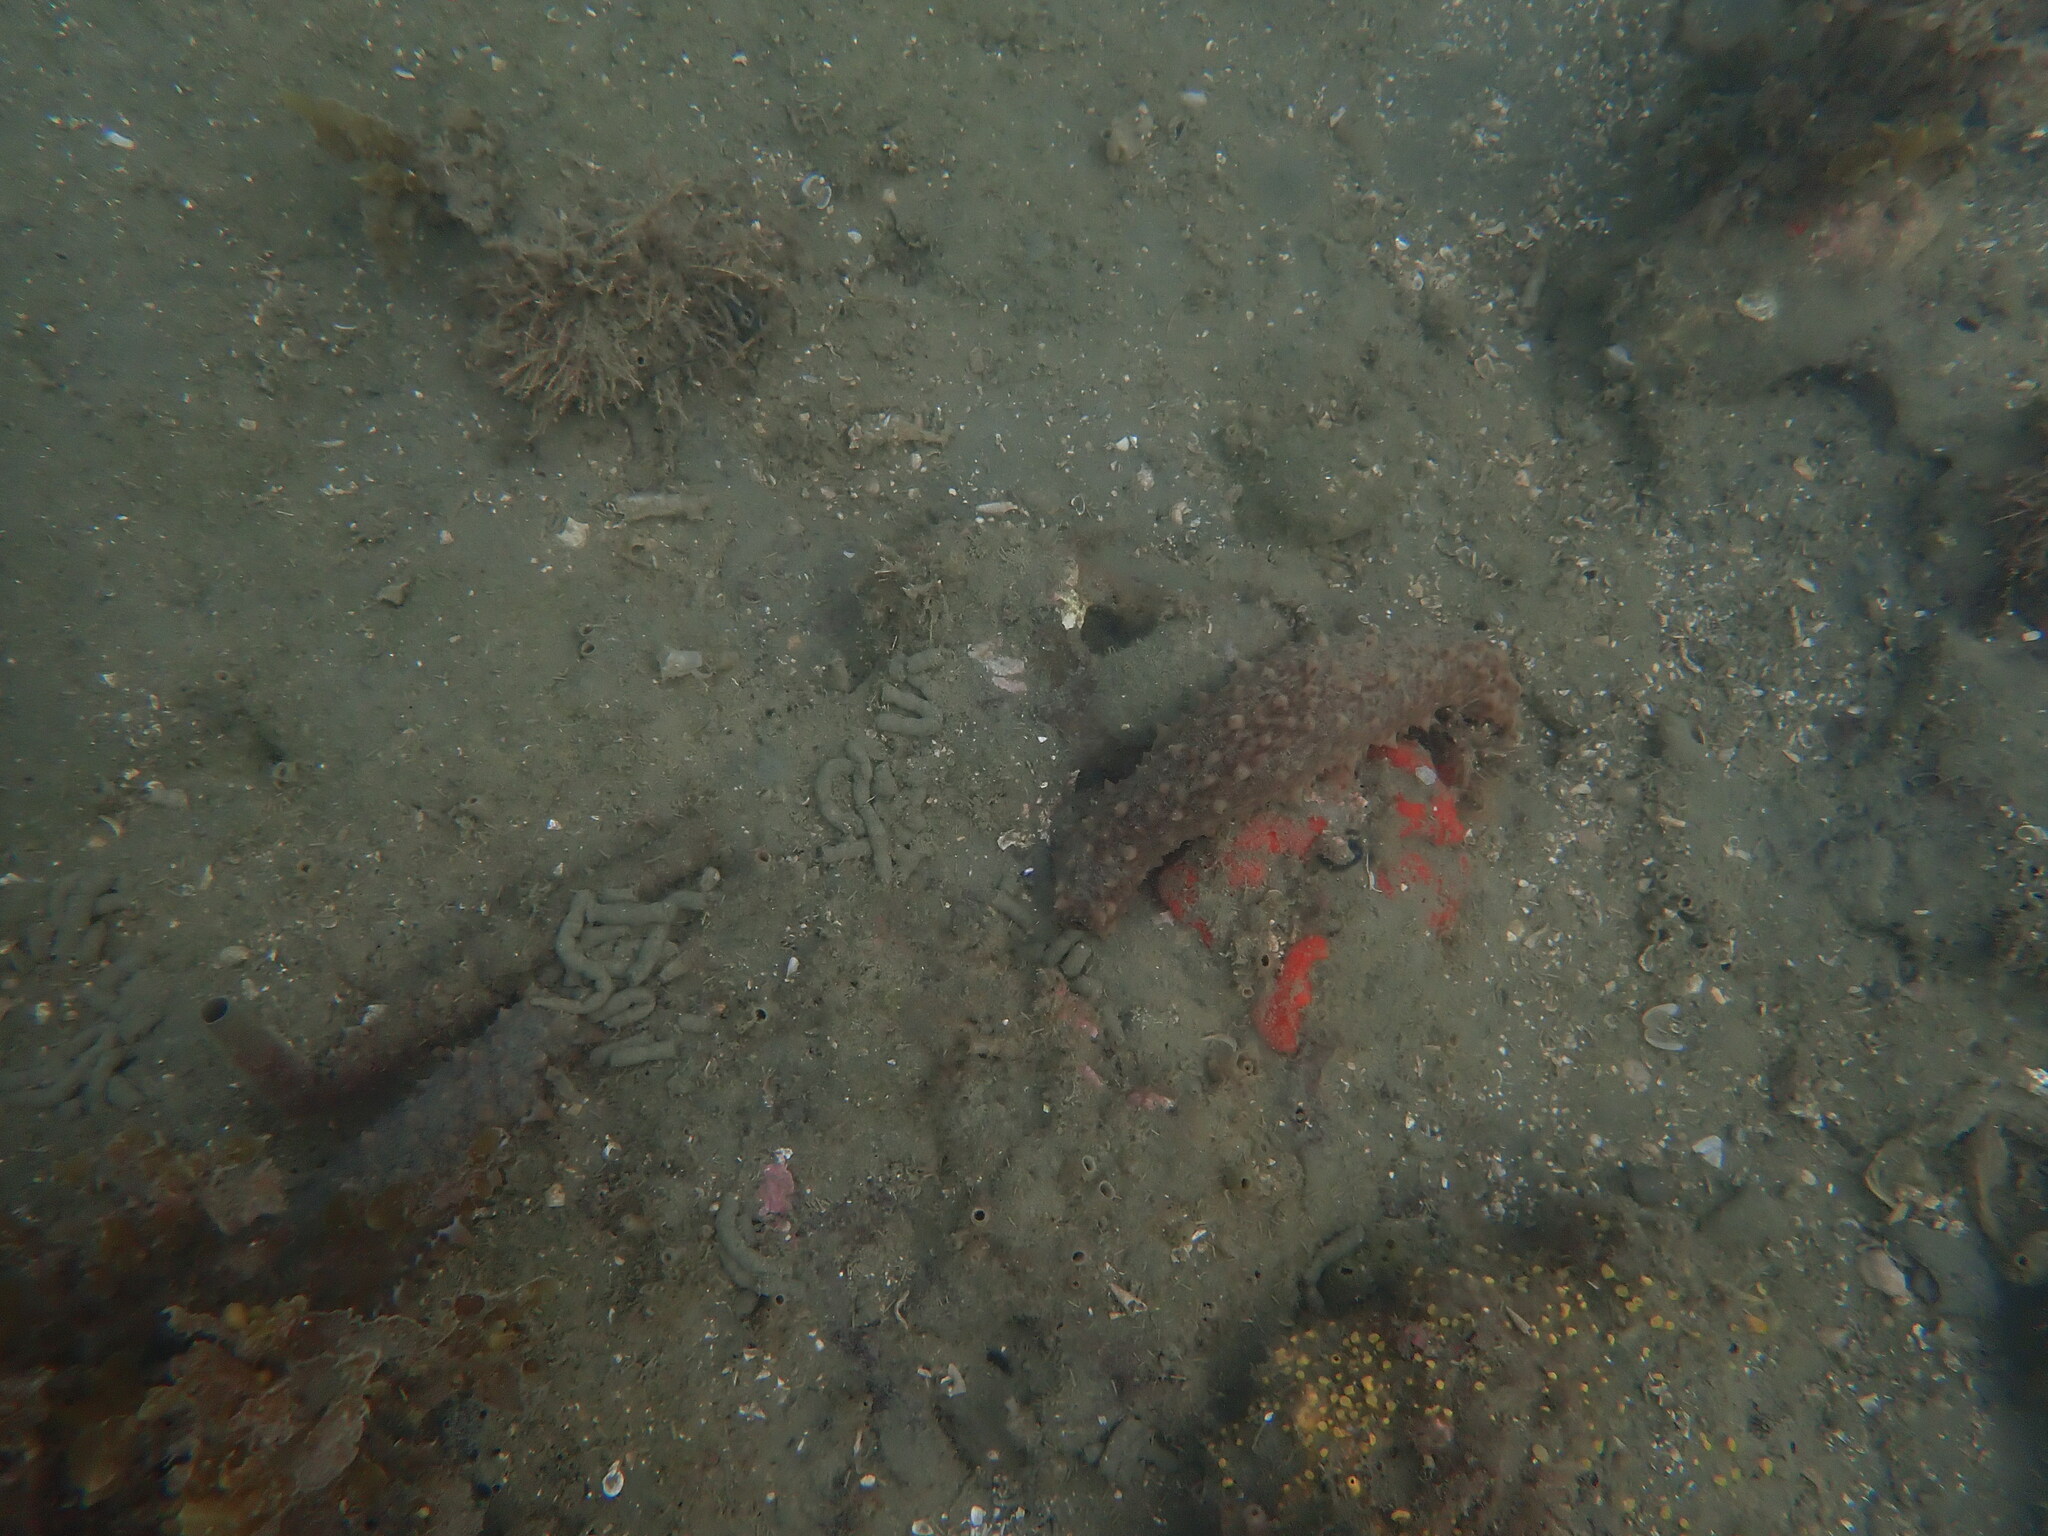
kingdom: Animalia
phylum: Echinodermata
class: Holothuroidea
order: Synallactida
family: Stichopodidae
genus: Australostichopus
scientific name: Australostichopus mollis
